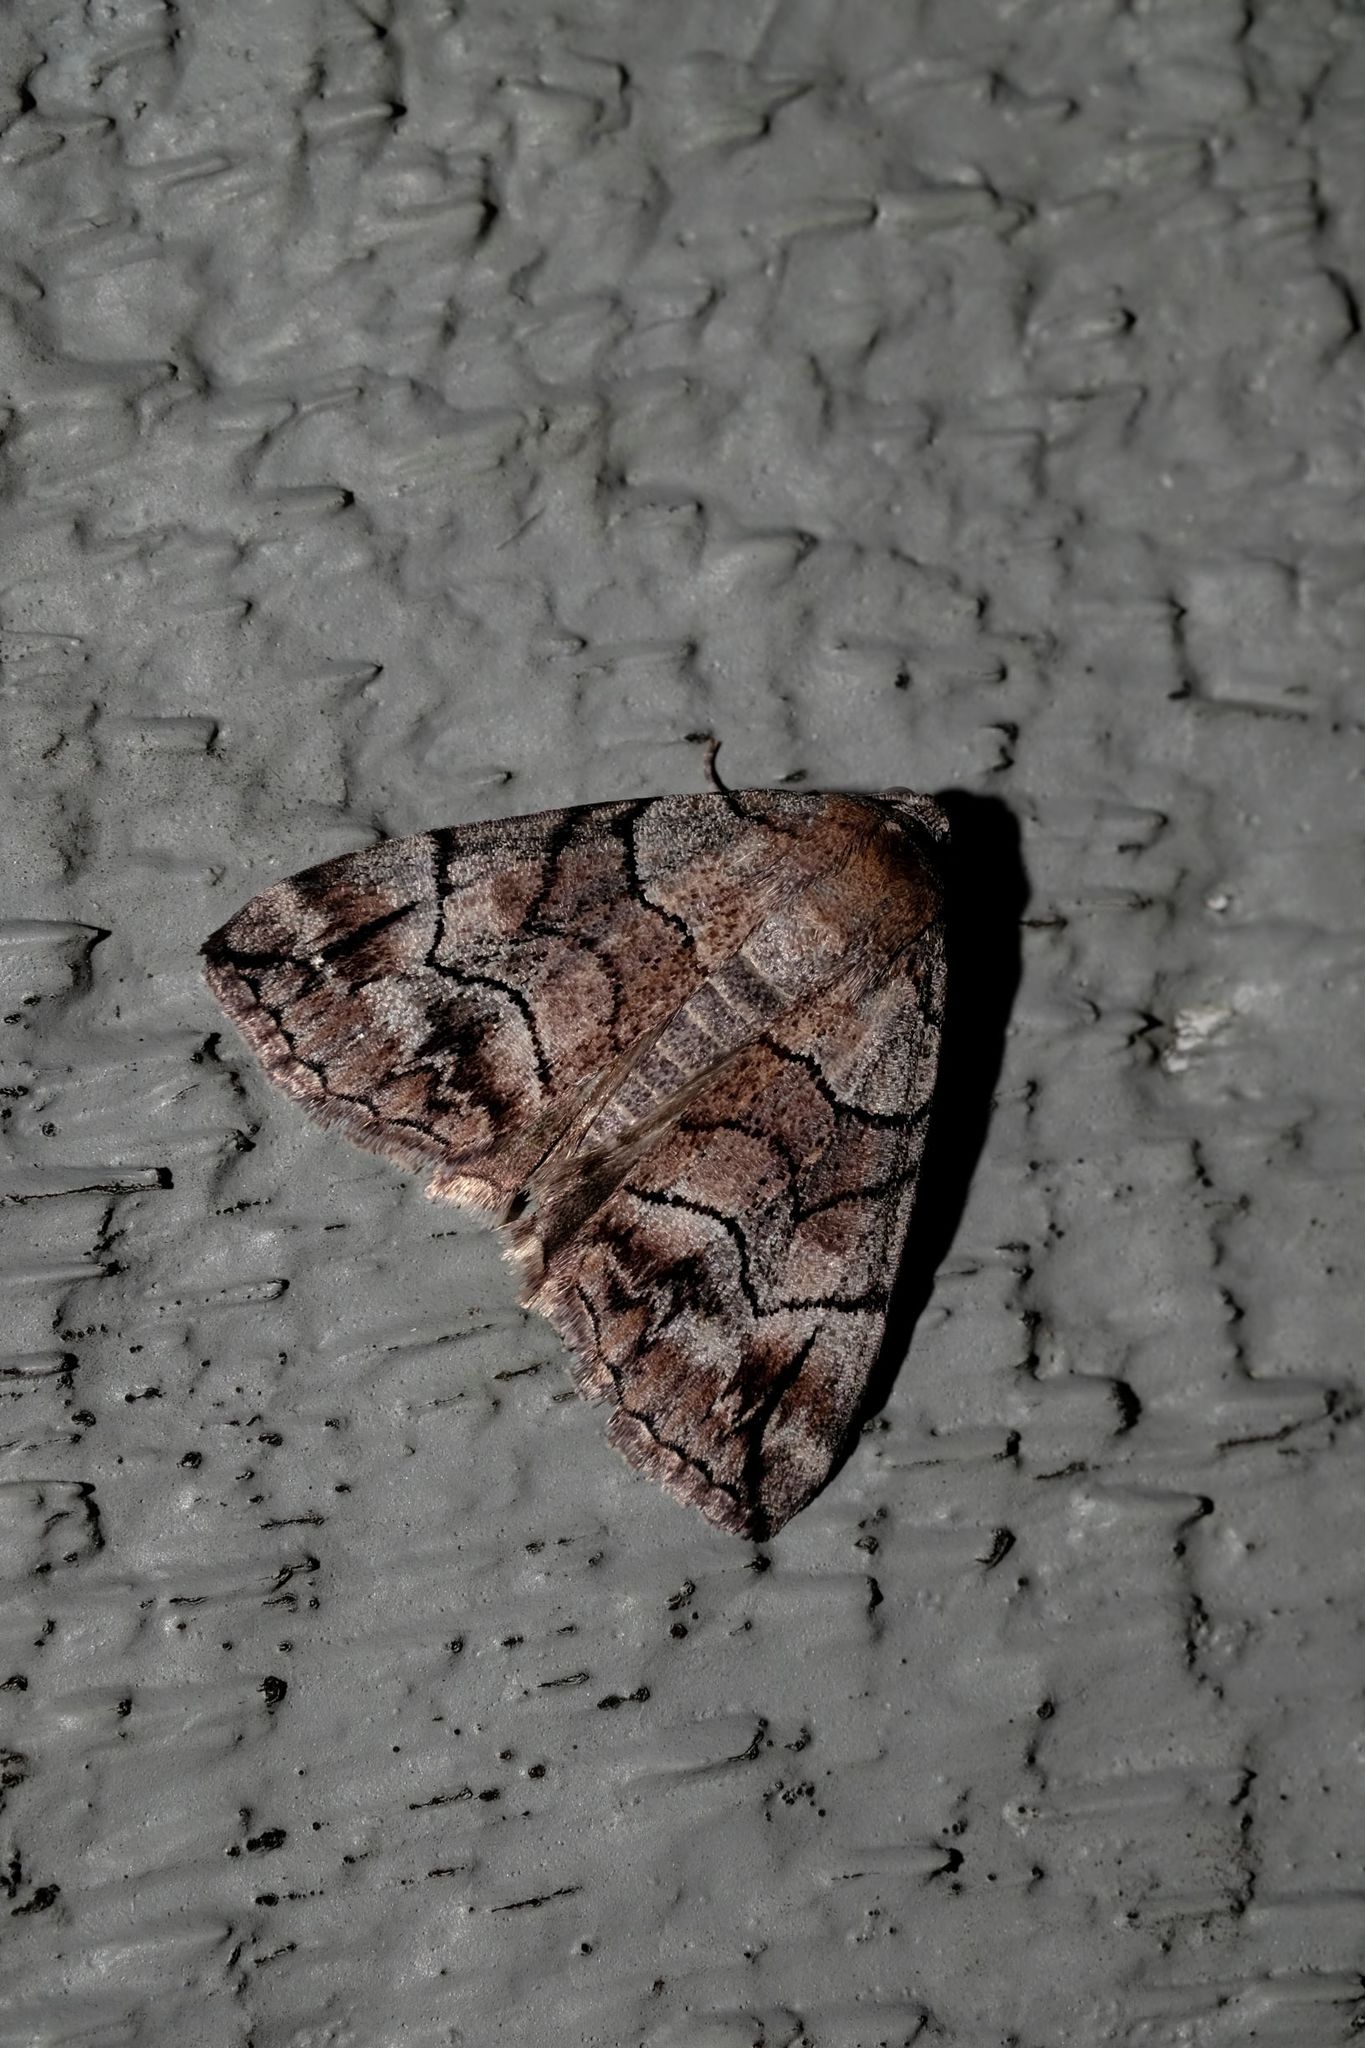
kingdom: Animalia
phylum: Arthropoda
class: Insecta
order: Lepidoptera
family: Geometridae
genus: Dysbatus
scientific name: Dysbatus stenodesma
